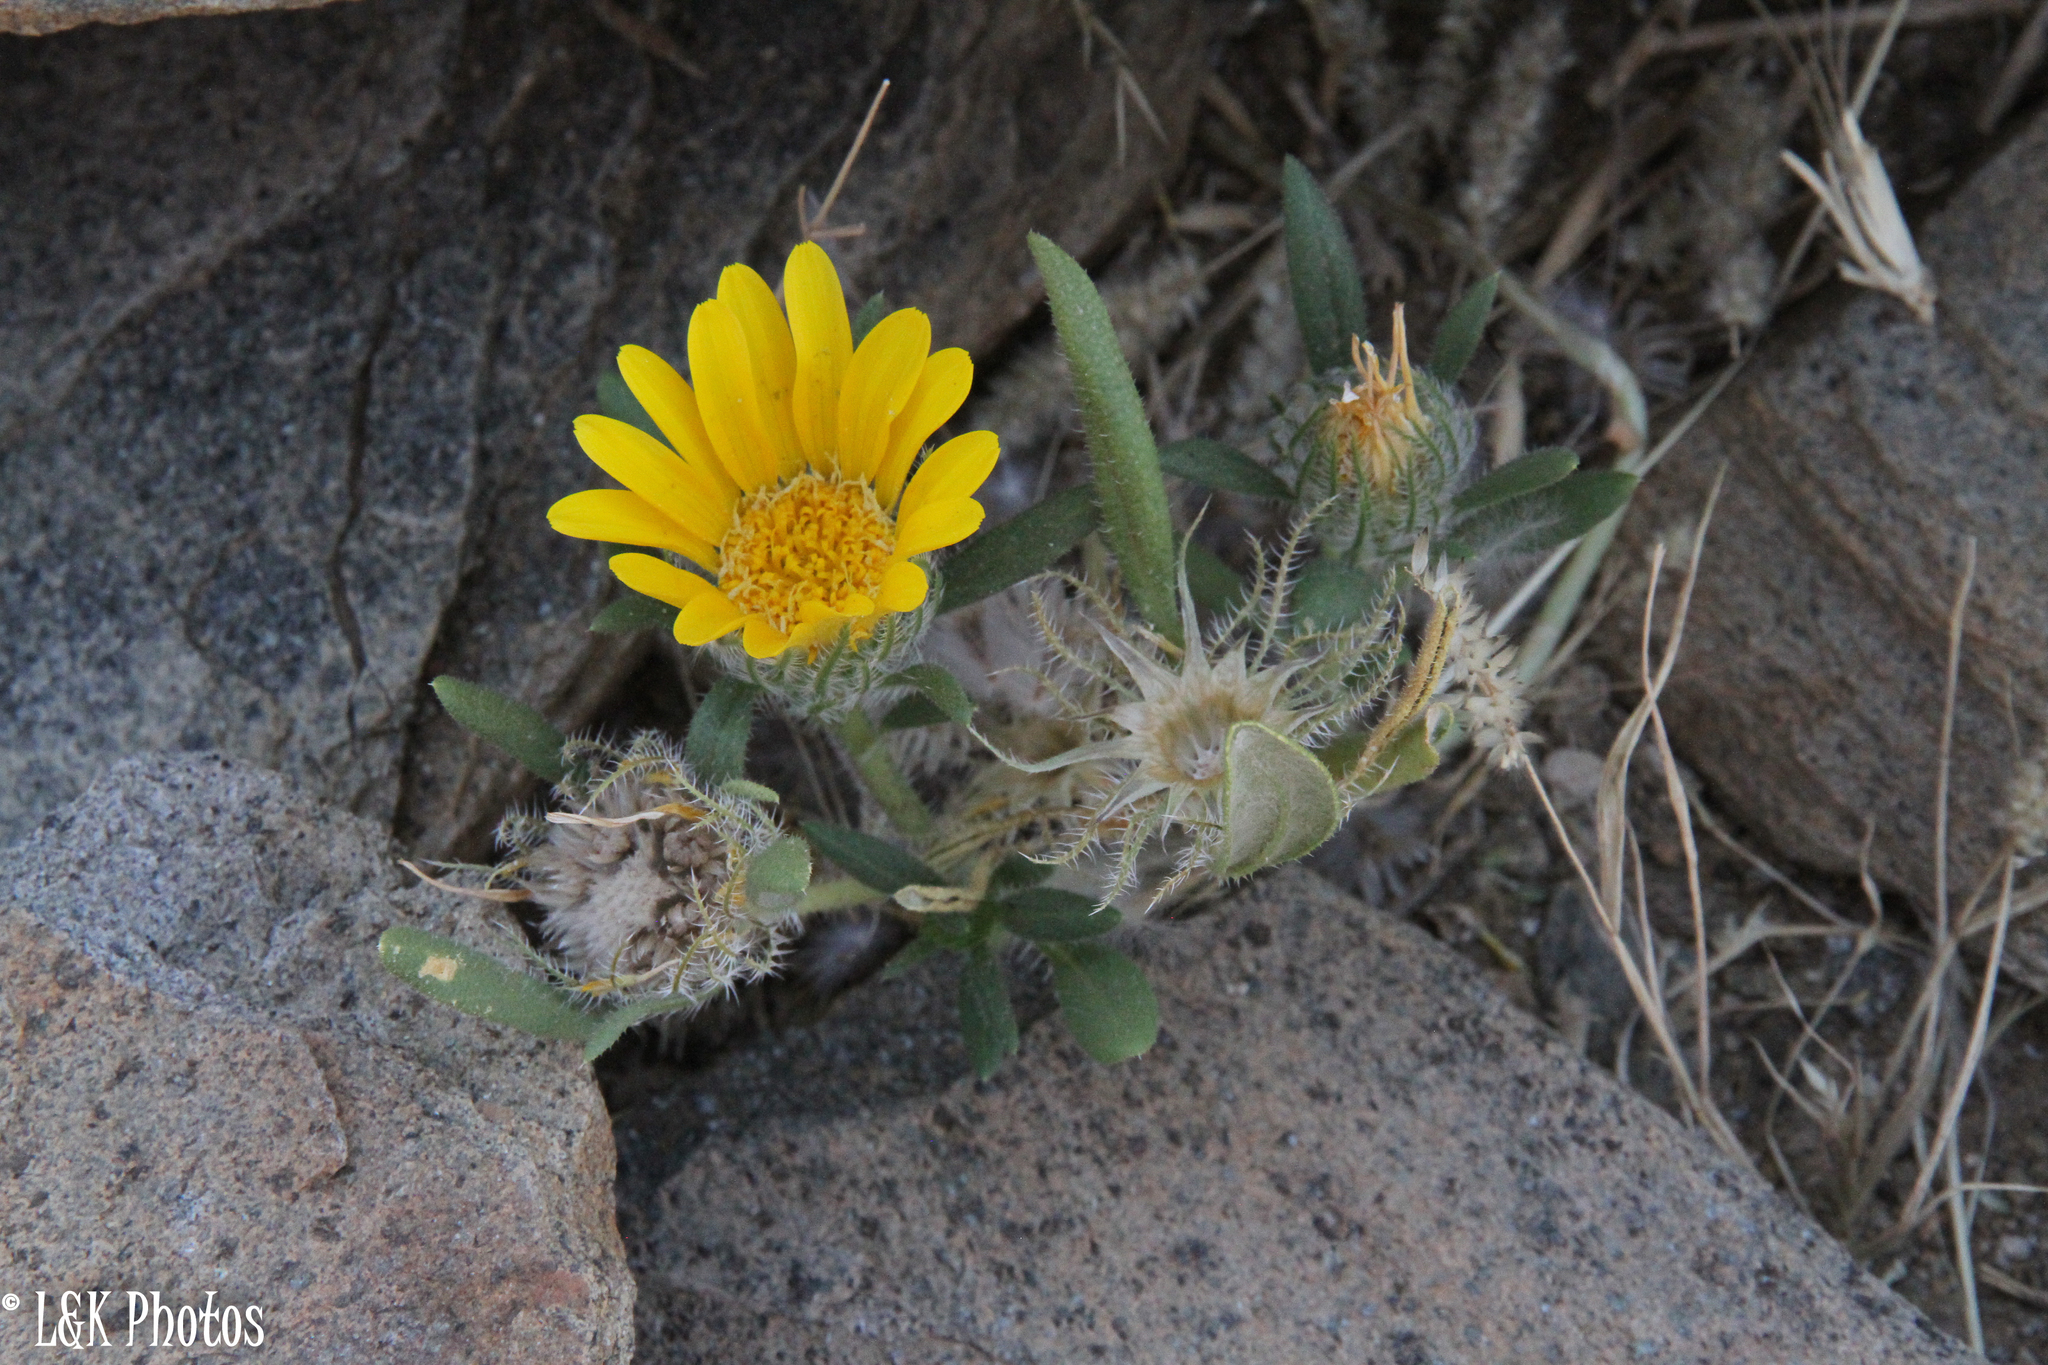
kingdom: Plantae
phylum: Tracheophyta
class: Magnoliopsida
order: Asterales
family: Asteraceae
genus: Roessleria
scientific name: Roessleria gazanioides
